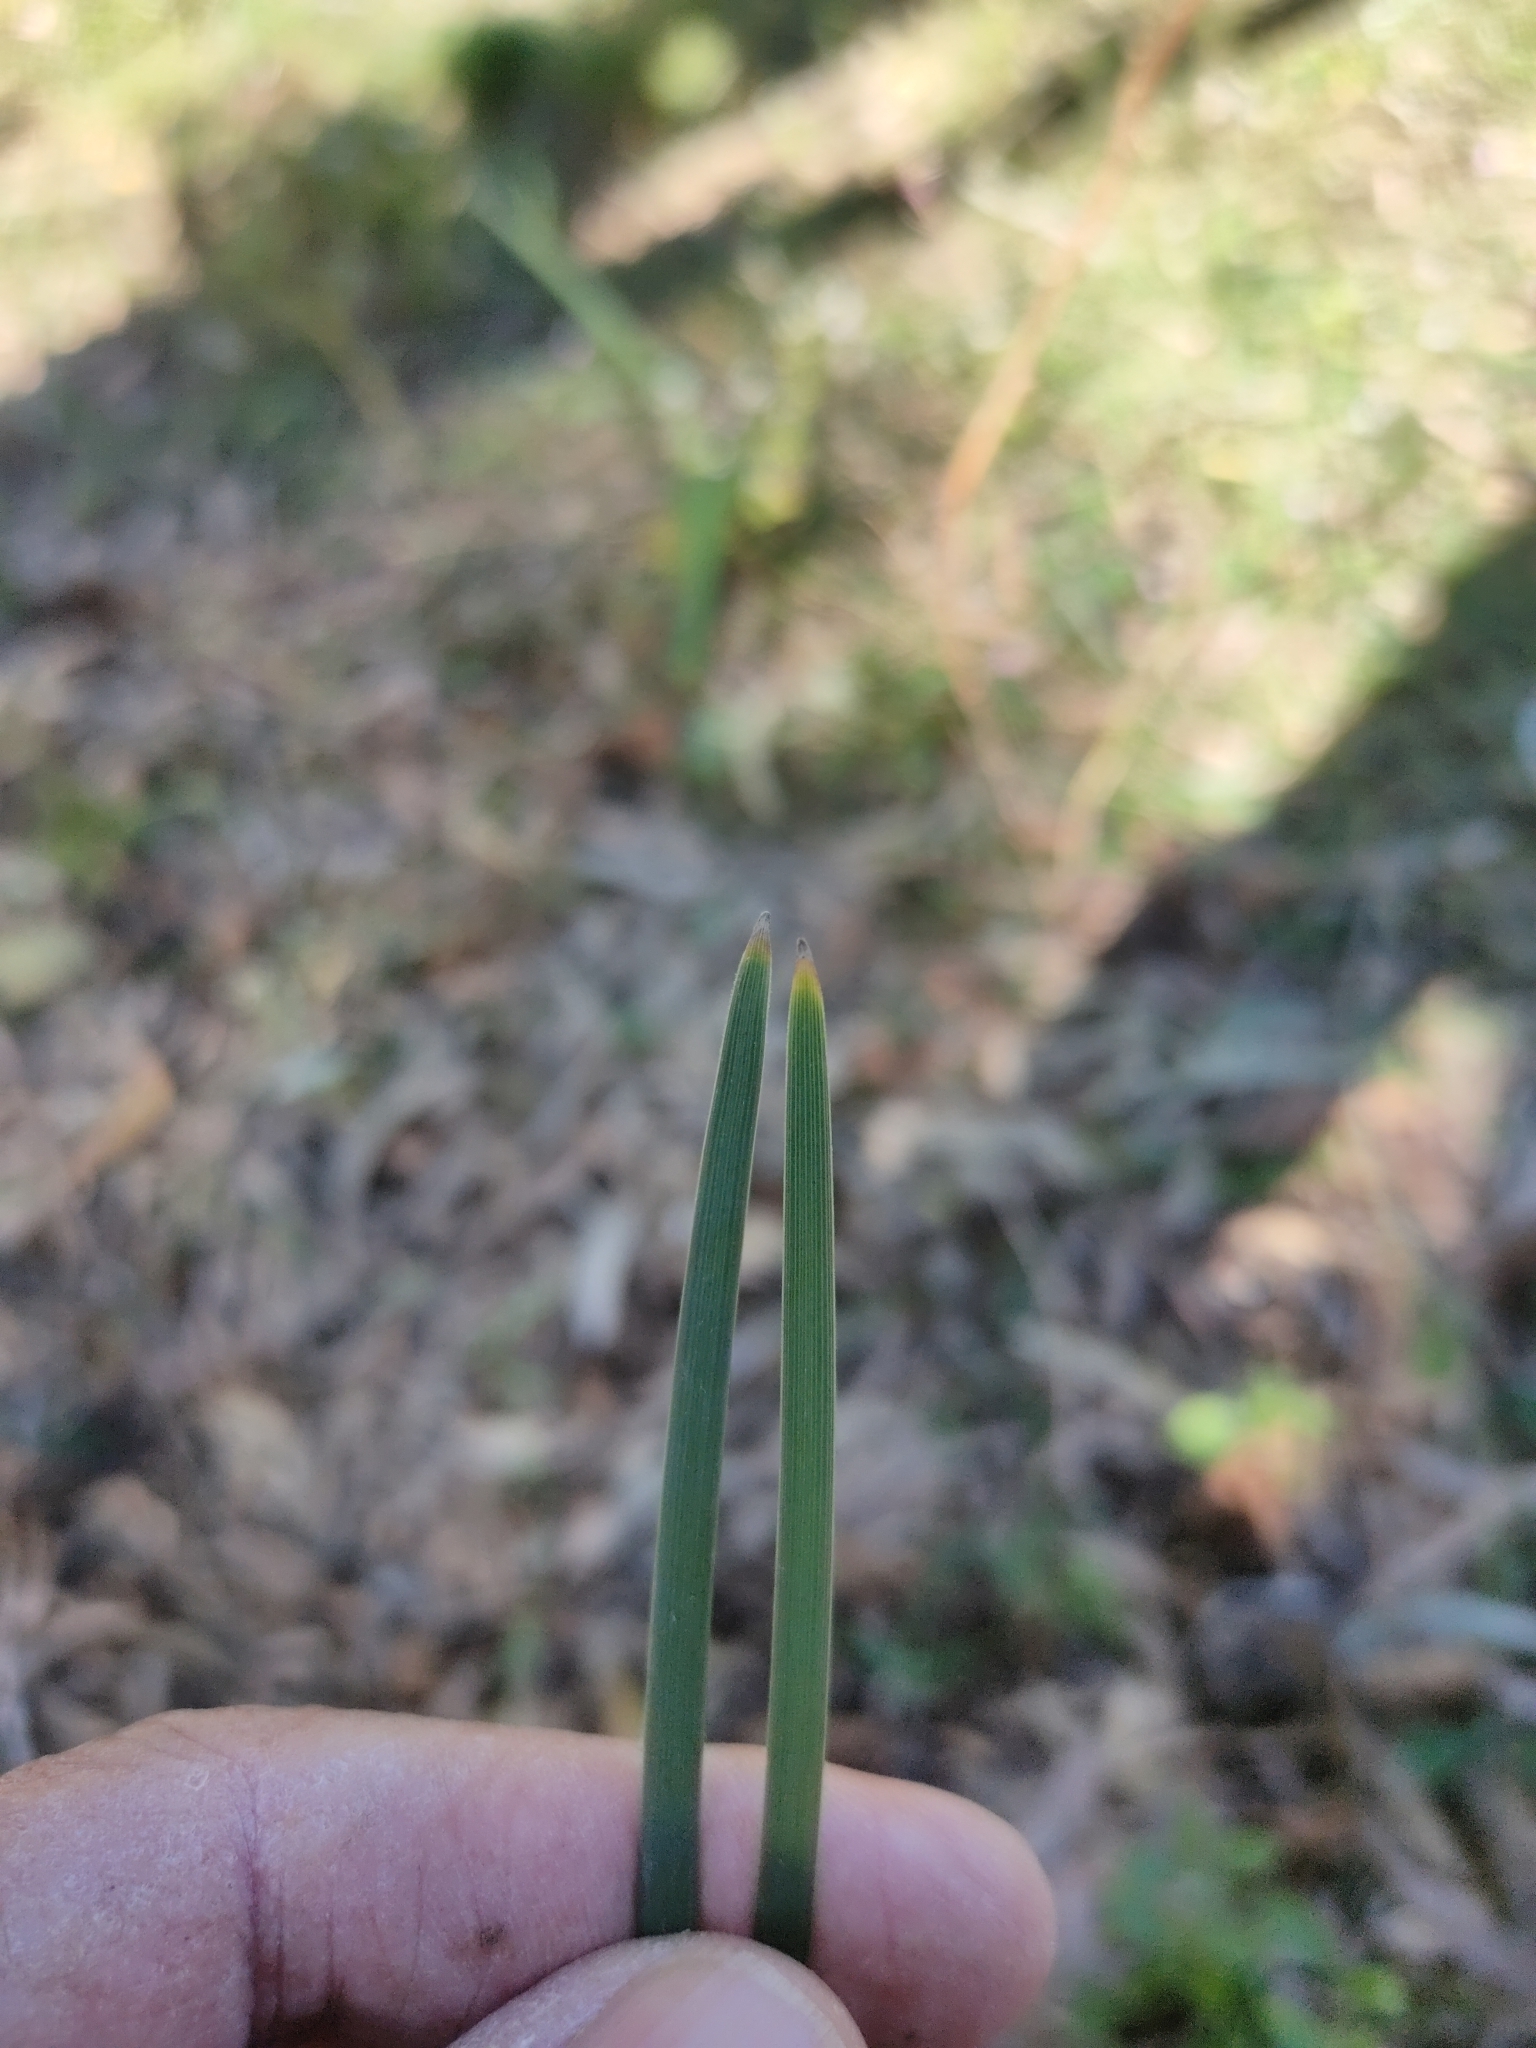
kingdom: Plantae
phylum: Tracheophyta
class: Liliopsida
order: Asparagales
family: Asparagaceae
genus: Lomandra
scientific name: Lomandra multiflora
